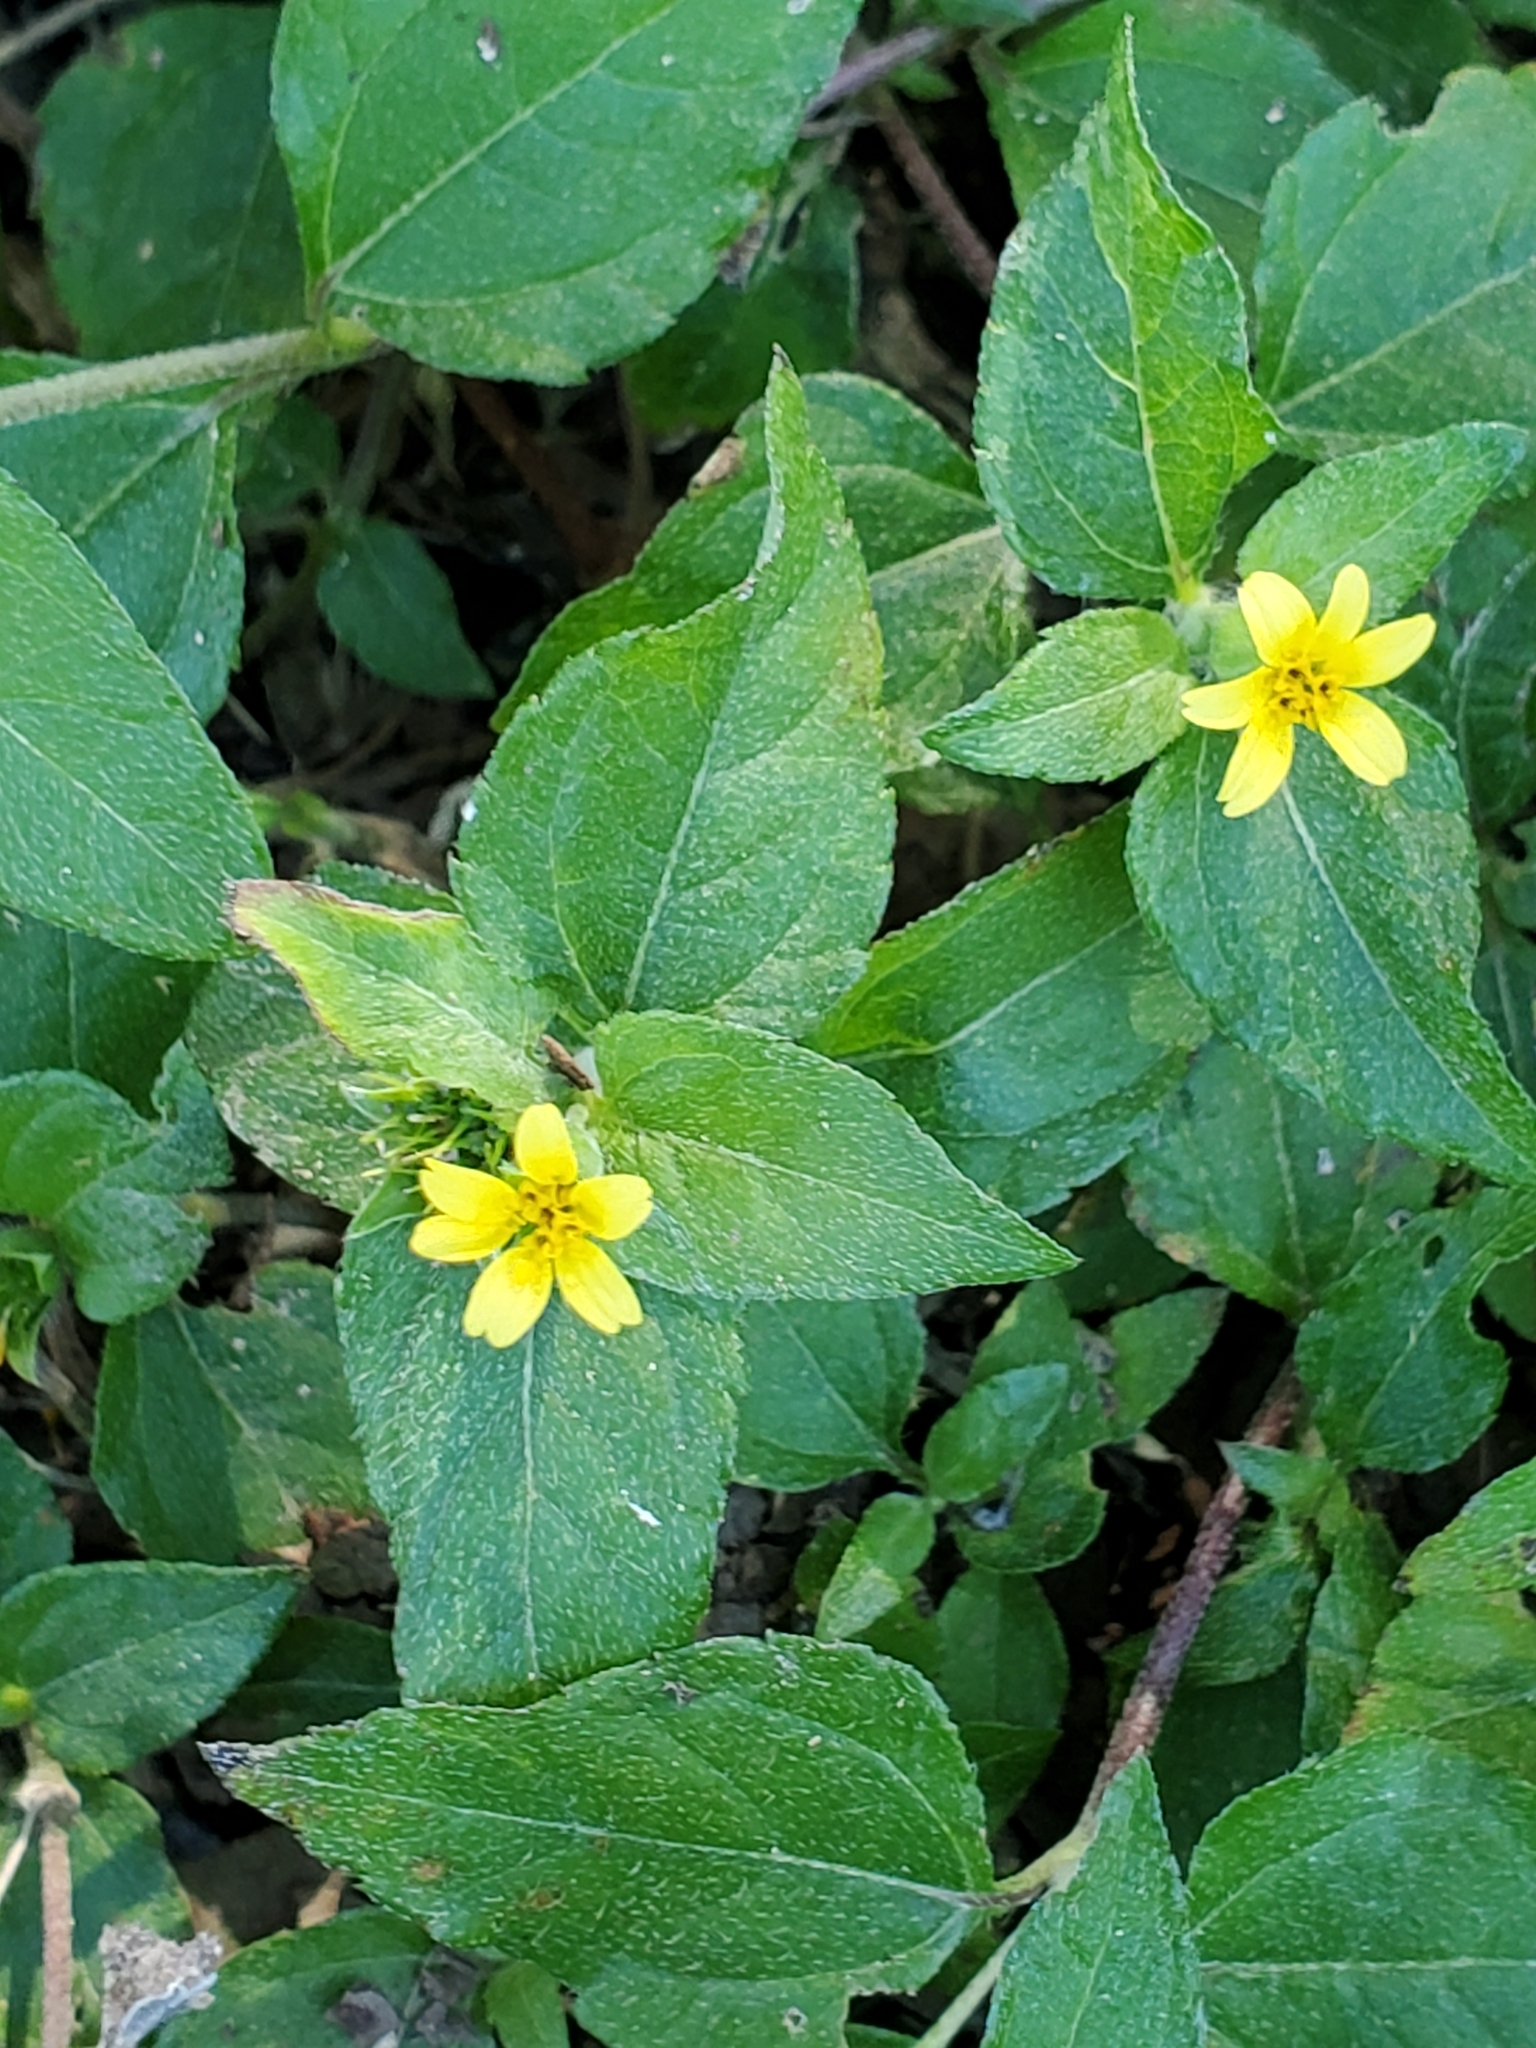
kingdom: Plantae
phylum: Tracheophyta
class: Magnoliopsida
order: Asterales
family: Asteraceae
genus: Calyptocarpus
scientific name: Calyptocarpus vialis
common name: Straggler daisy
